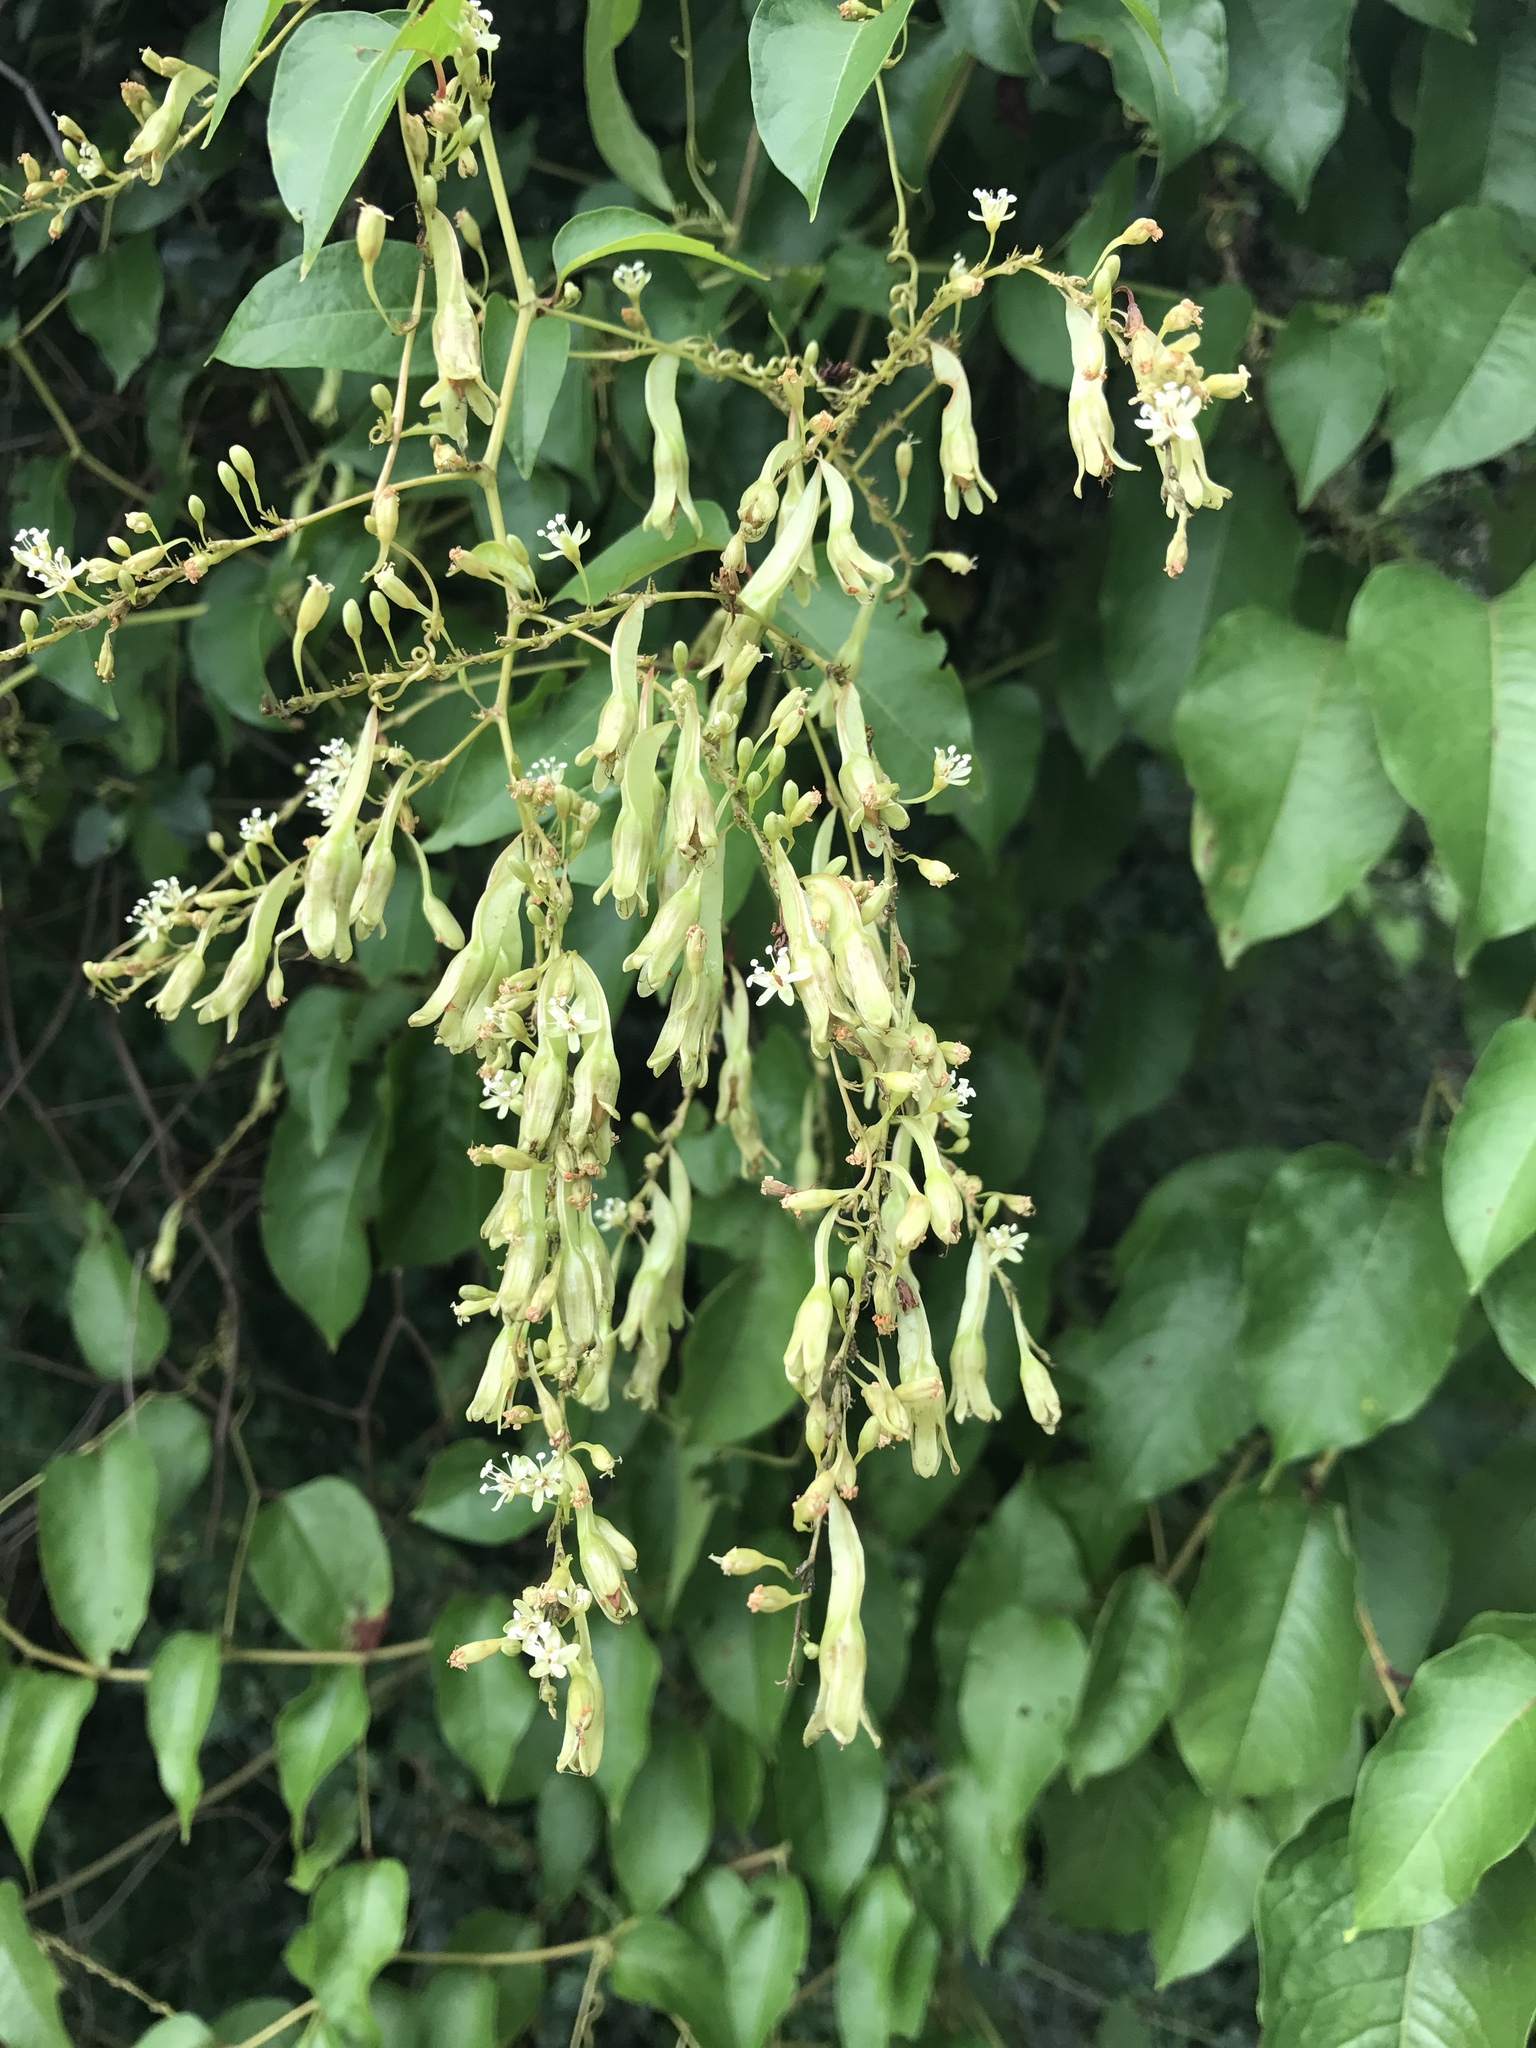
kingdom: Plantae
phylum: Tracheophyta
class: Magnoliopsida
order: Caryophyllales
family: Polygonaceae
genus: Brunnichia
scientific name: Brunnichia ovata
